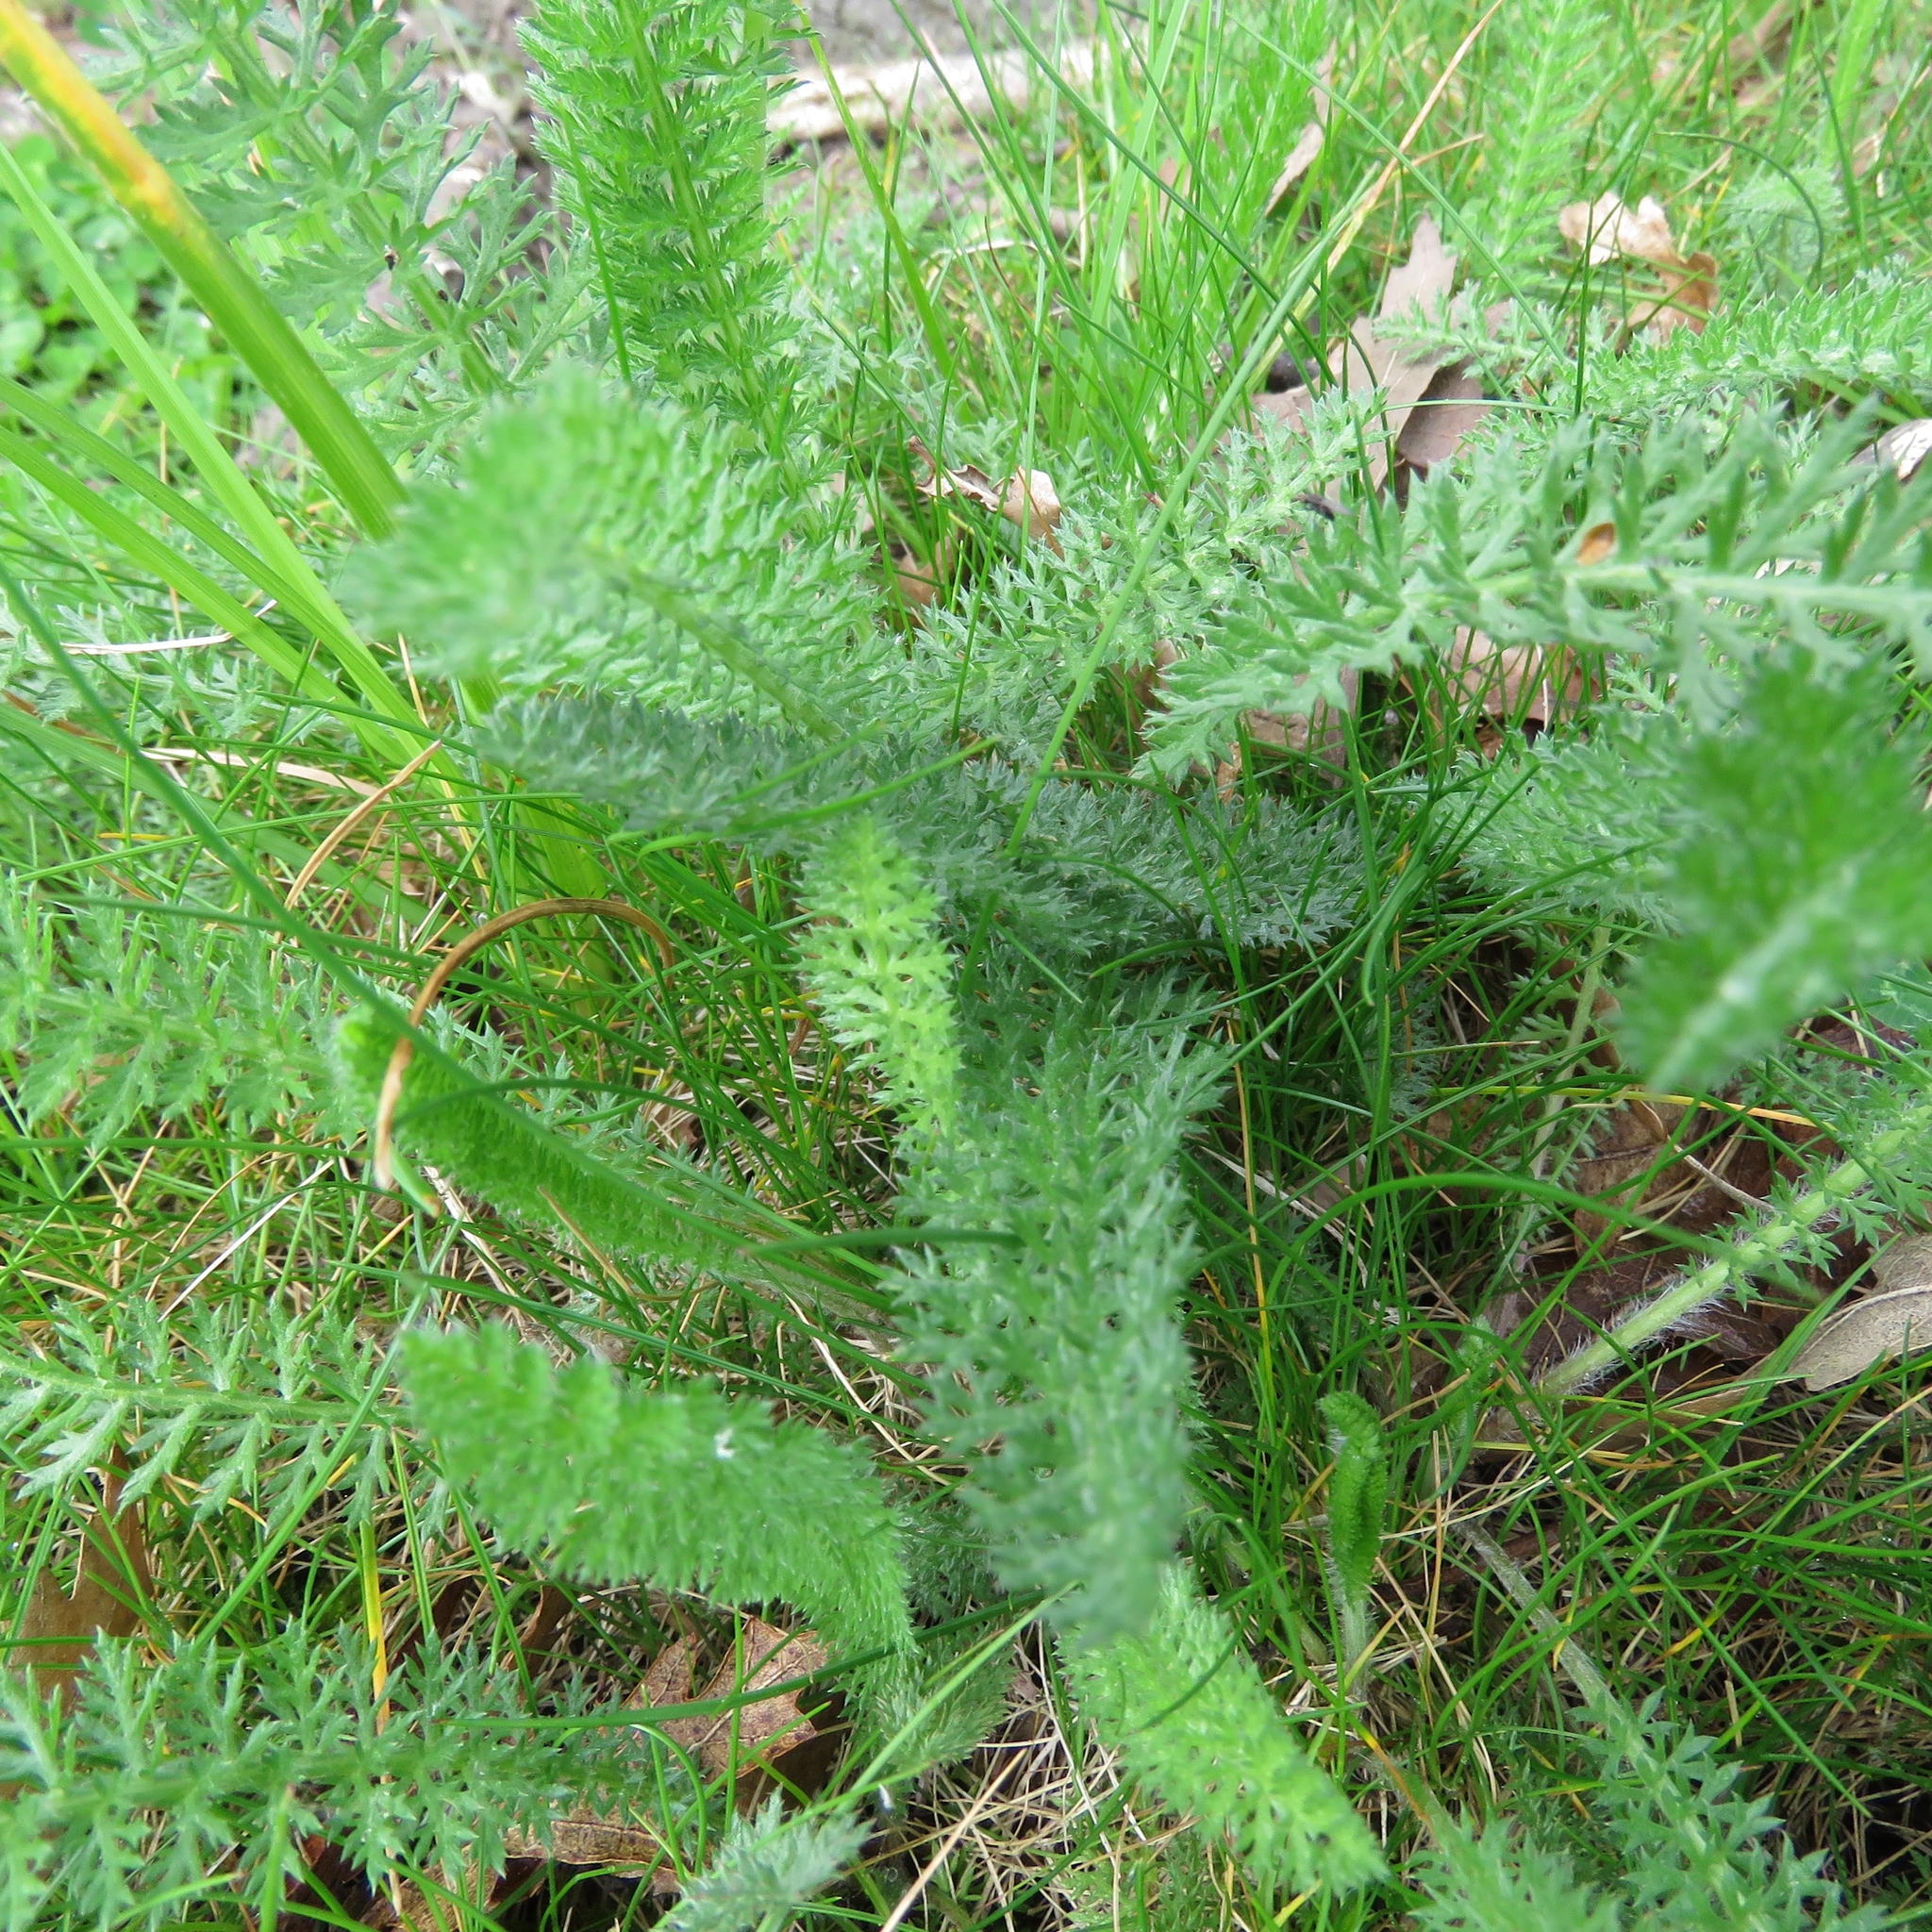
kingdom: Plantae
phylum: Tracheophyta
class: Magnoliopsida
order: Asterales
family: Asteraceae
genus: Achillea
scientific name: Achillea millefolium
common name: Yarrow
